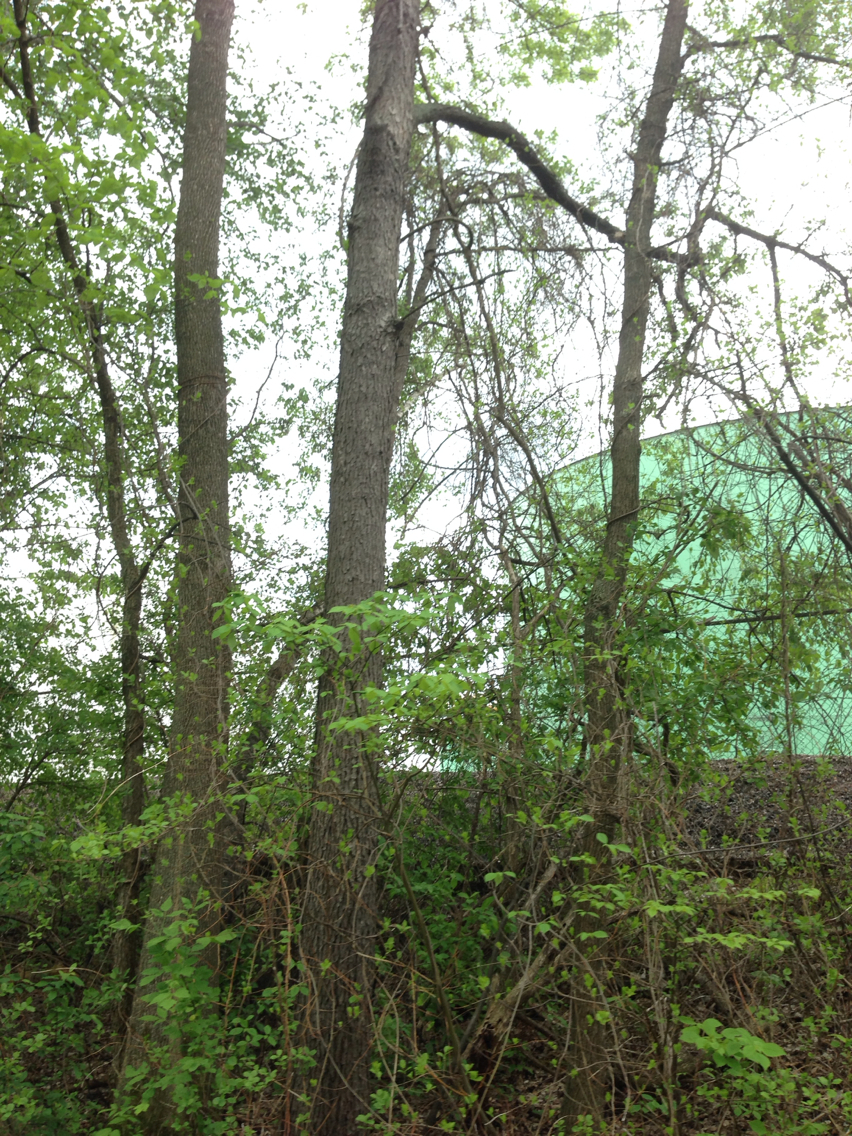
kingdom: Plantae
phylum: Tracheophyta
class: Magnoliopsida
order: Rosales
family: Rosaceae
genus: Prunus
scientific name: Prunus serotina
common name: Black cherry
